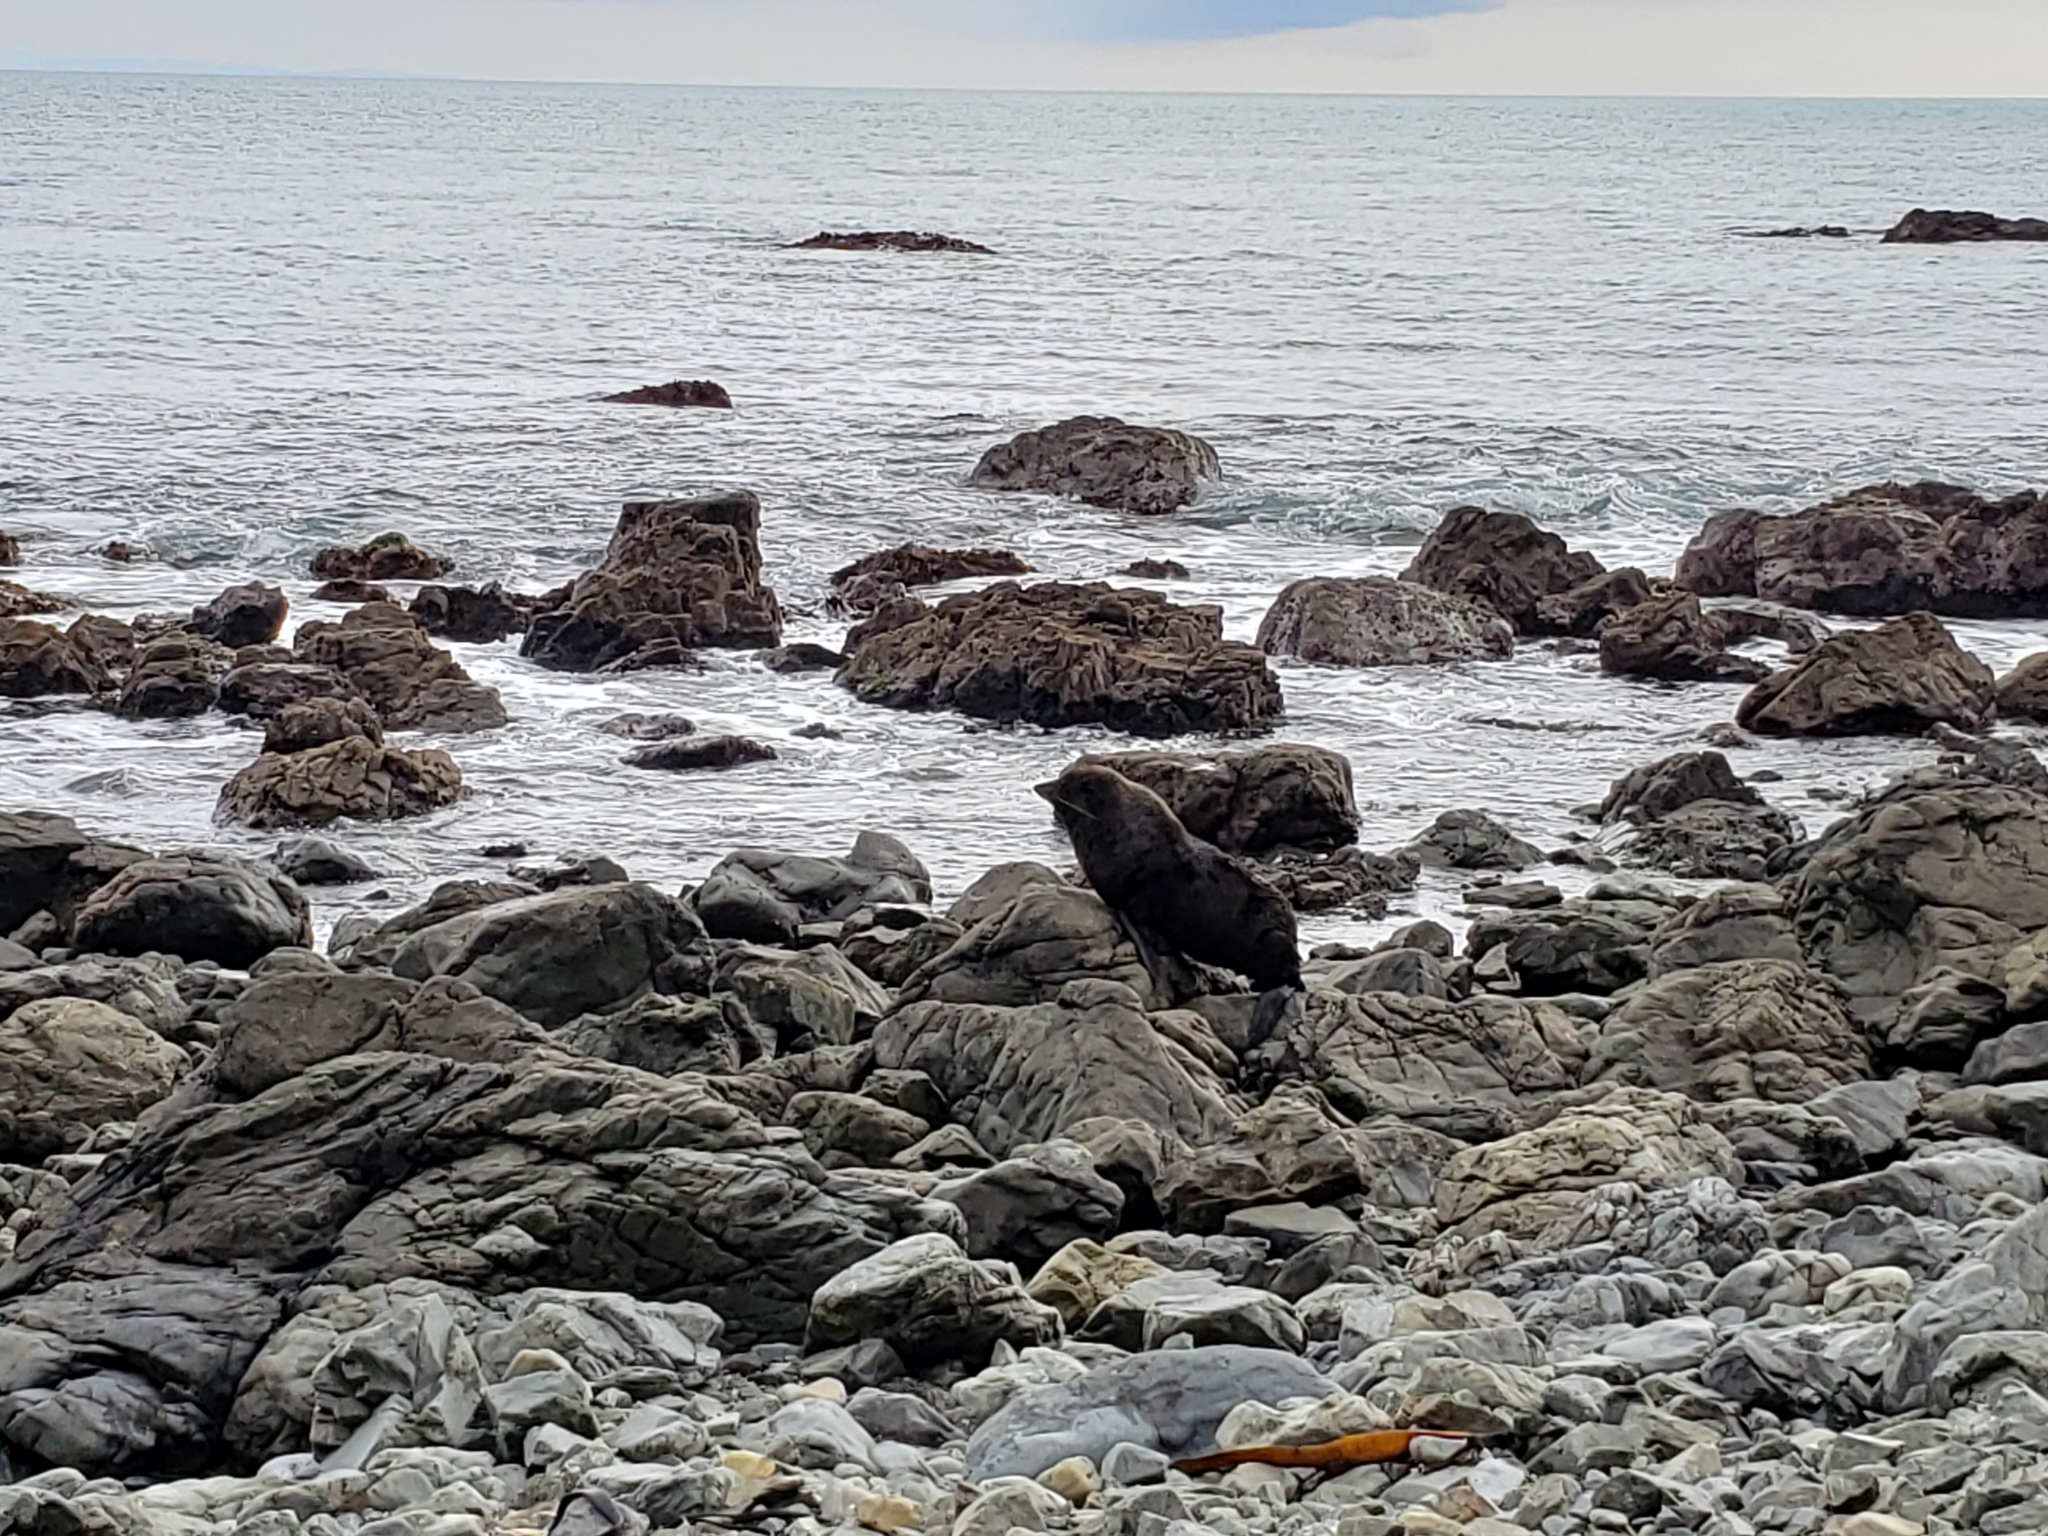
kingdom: Animalia
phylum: Chordata
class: Mammalia
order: Carnivora
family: Otariidae
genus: Arctocephalus
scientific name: Arctocephalus forsteri
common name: New zealand fur seal
